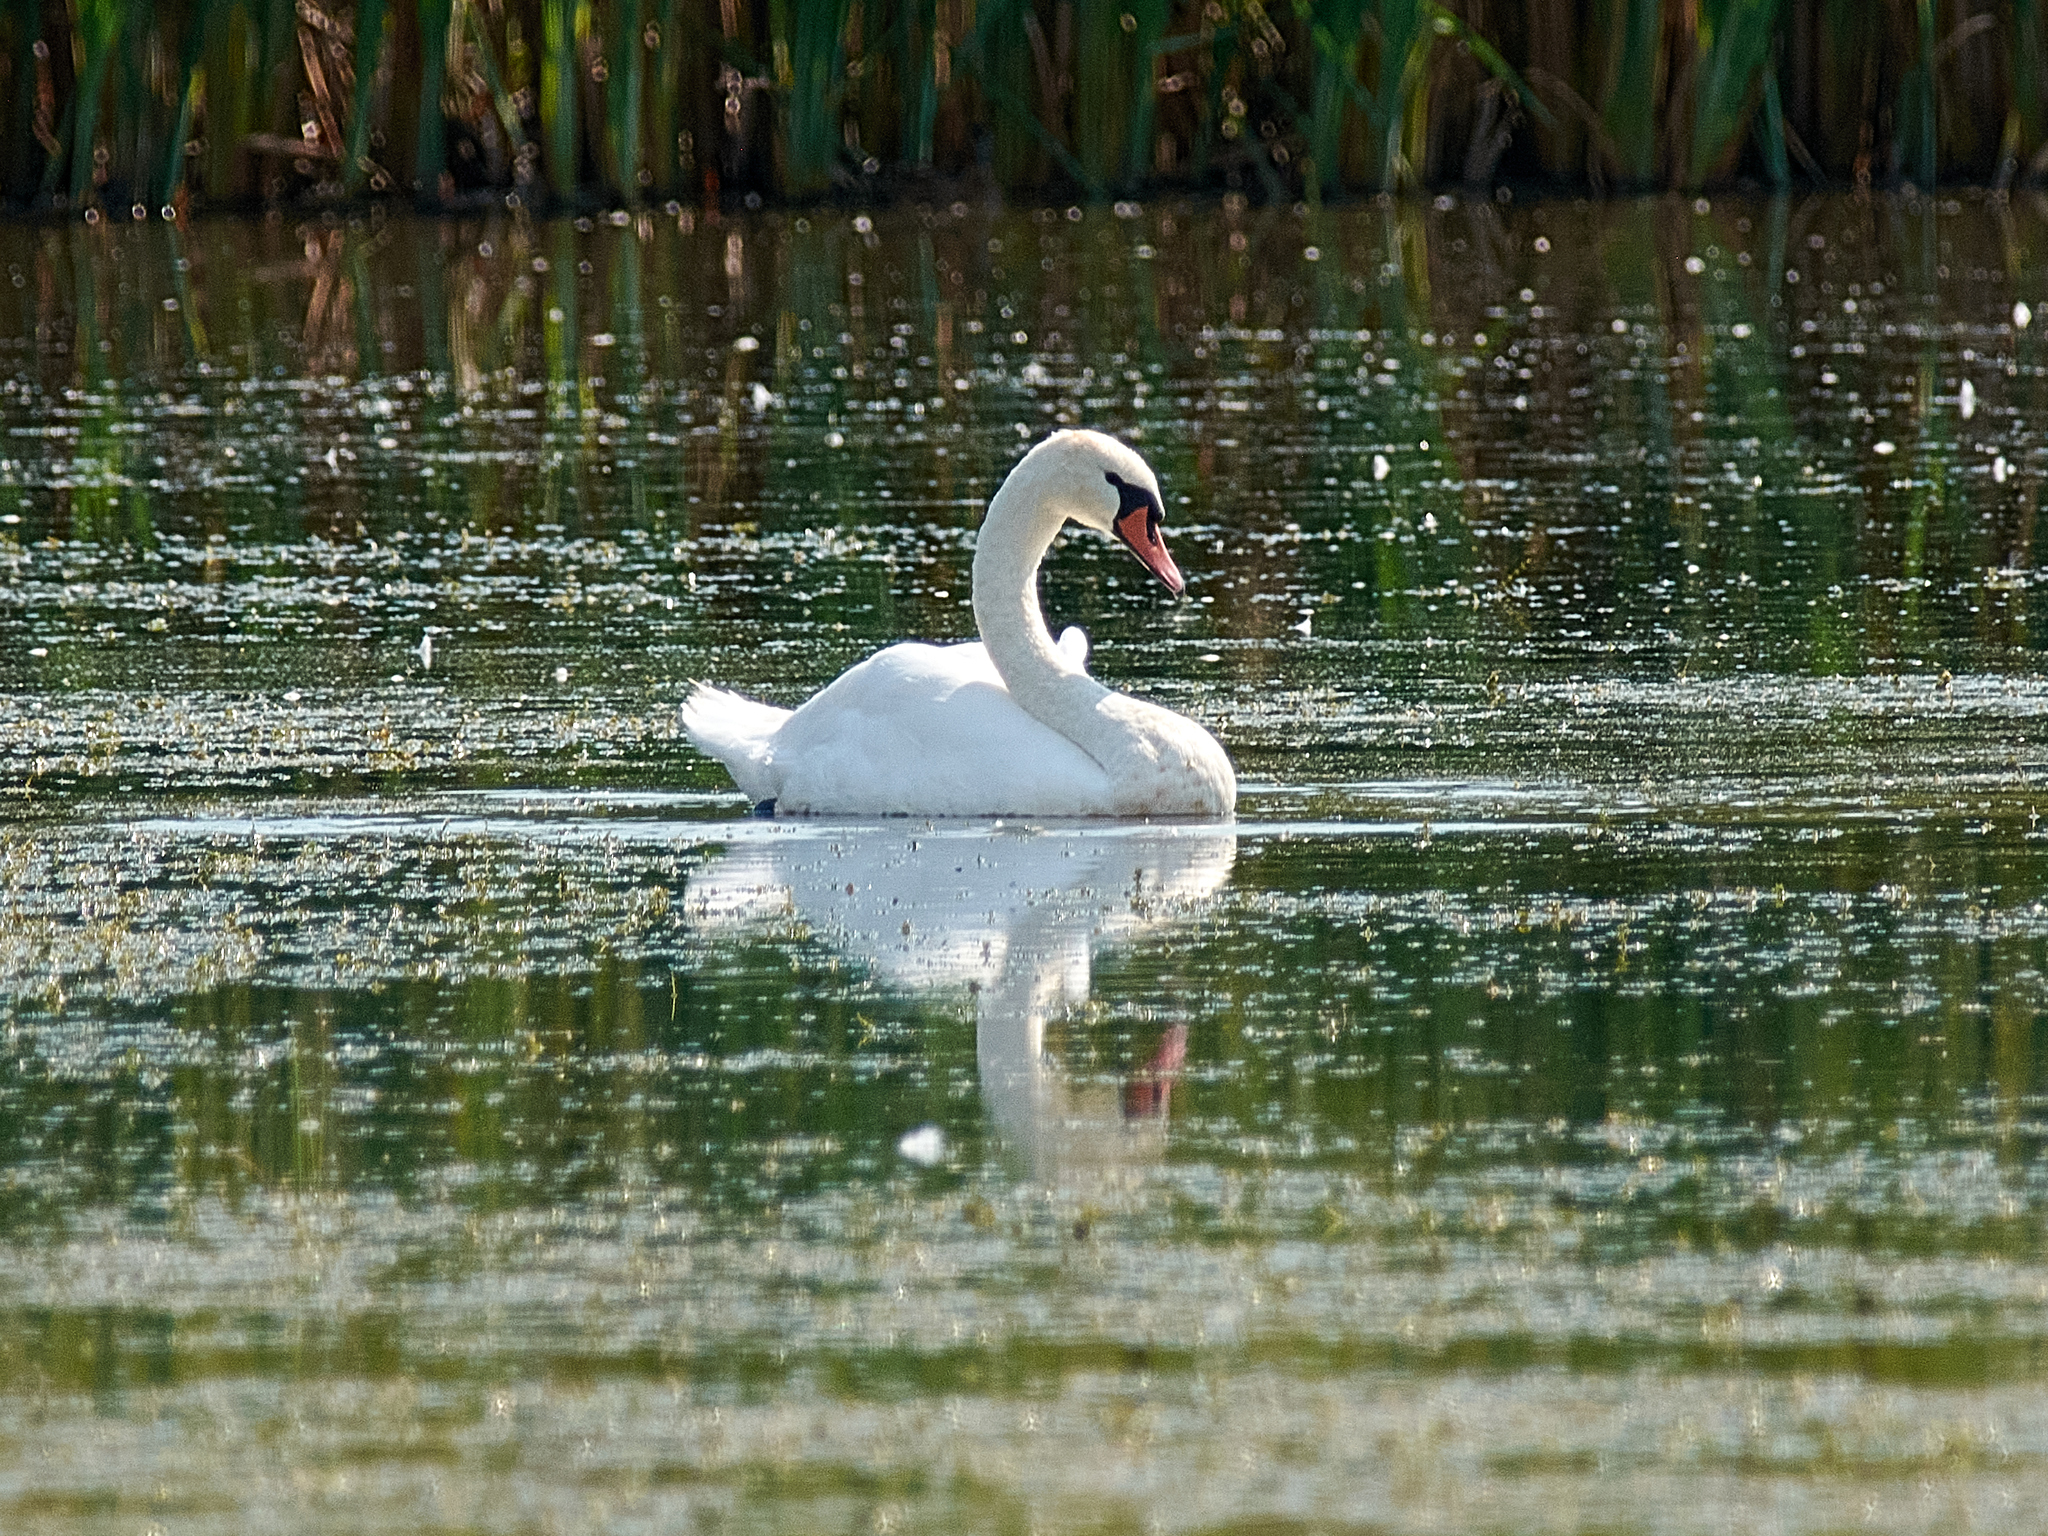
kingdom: Animalia
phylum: Chordata
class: Aves
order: Anseriformes
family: Anatidae
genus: Cygnus
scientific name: Cygnus olor
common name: Mute swan
